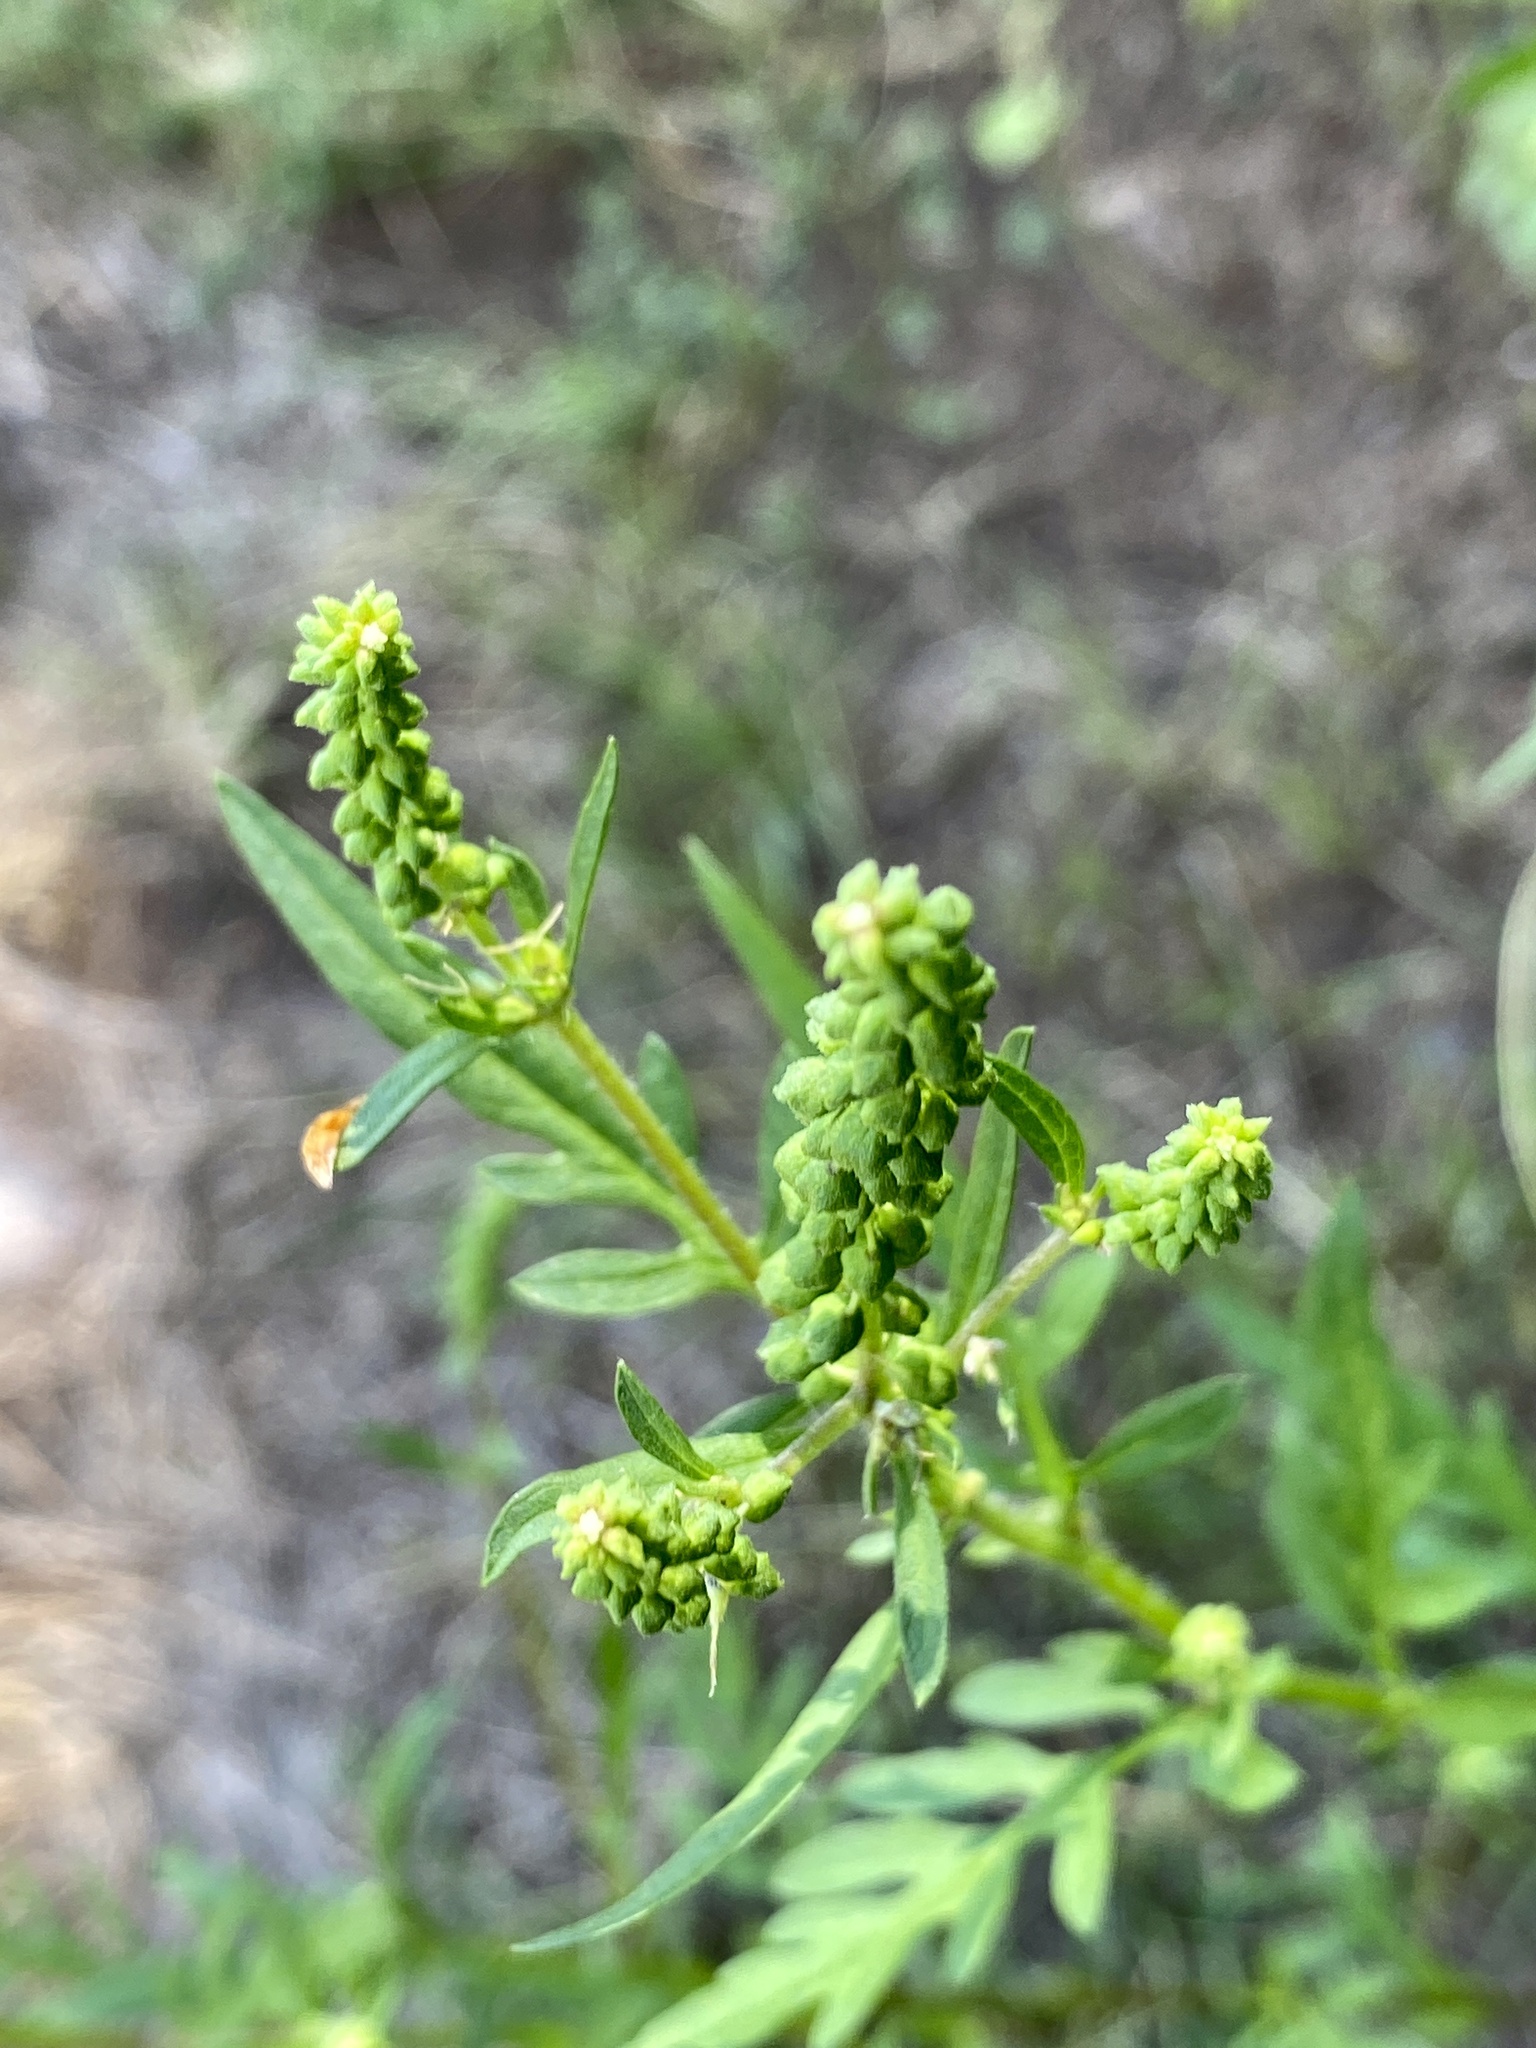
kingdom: Plantae
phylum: Tracheophyta
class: Magnoliopsida
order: Asterales
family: Asteraceae
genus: Ambrosia
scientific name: Ambrosia artemisiifolia
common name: Annual ragweed
